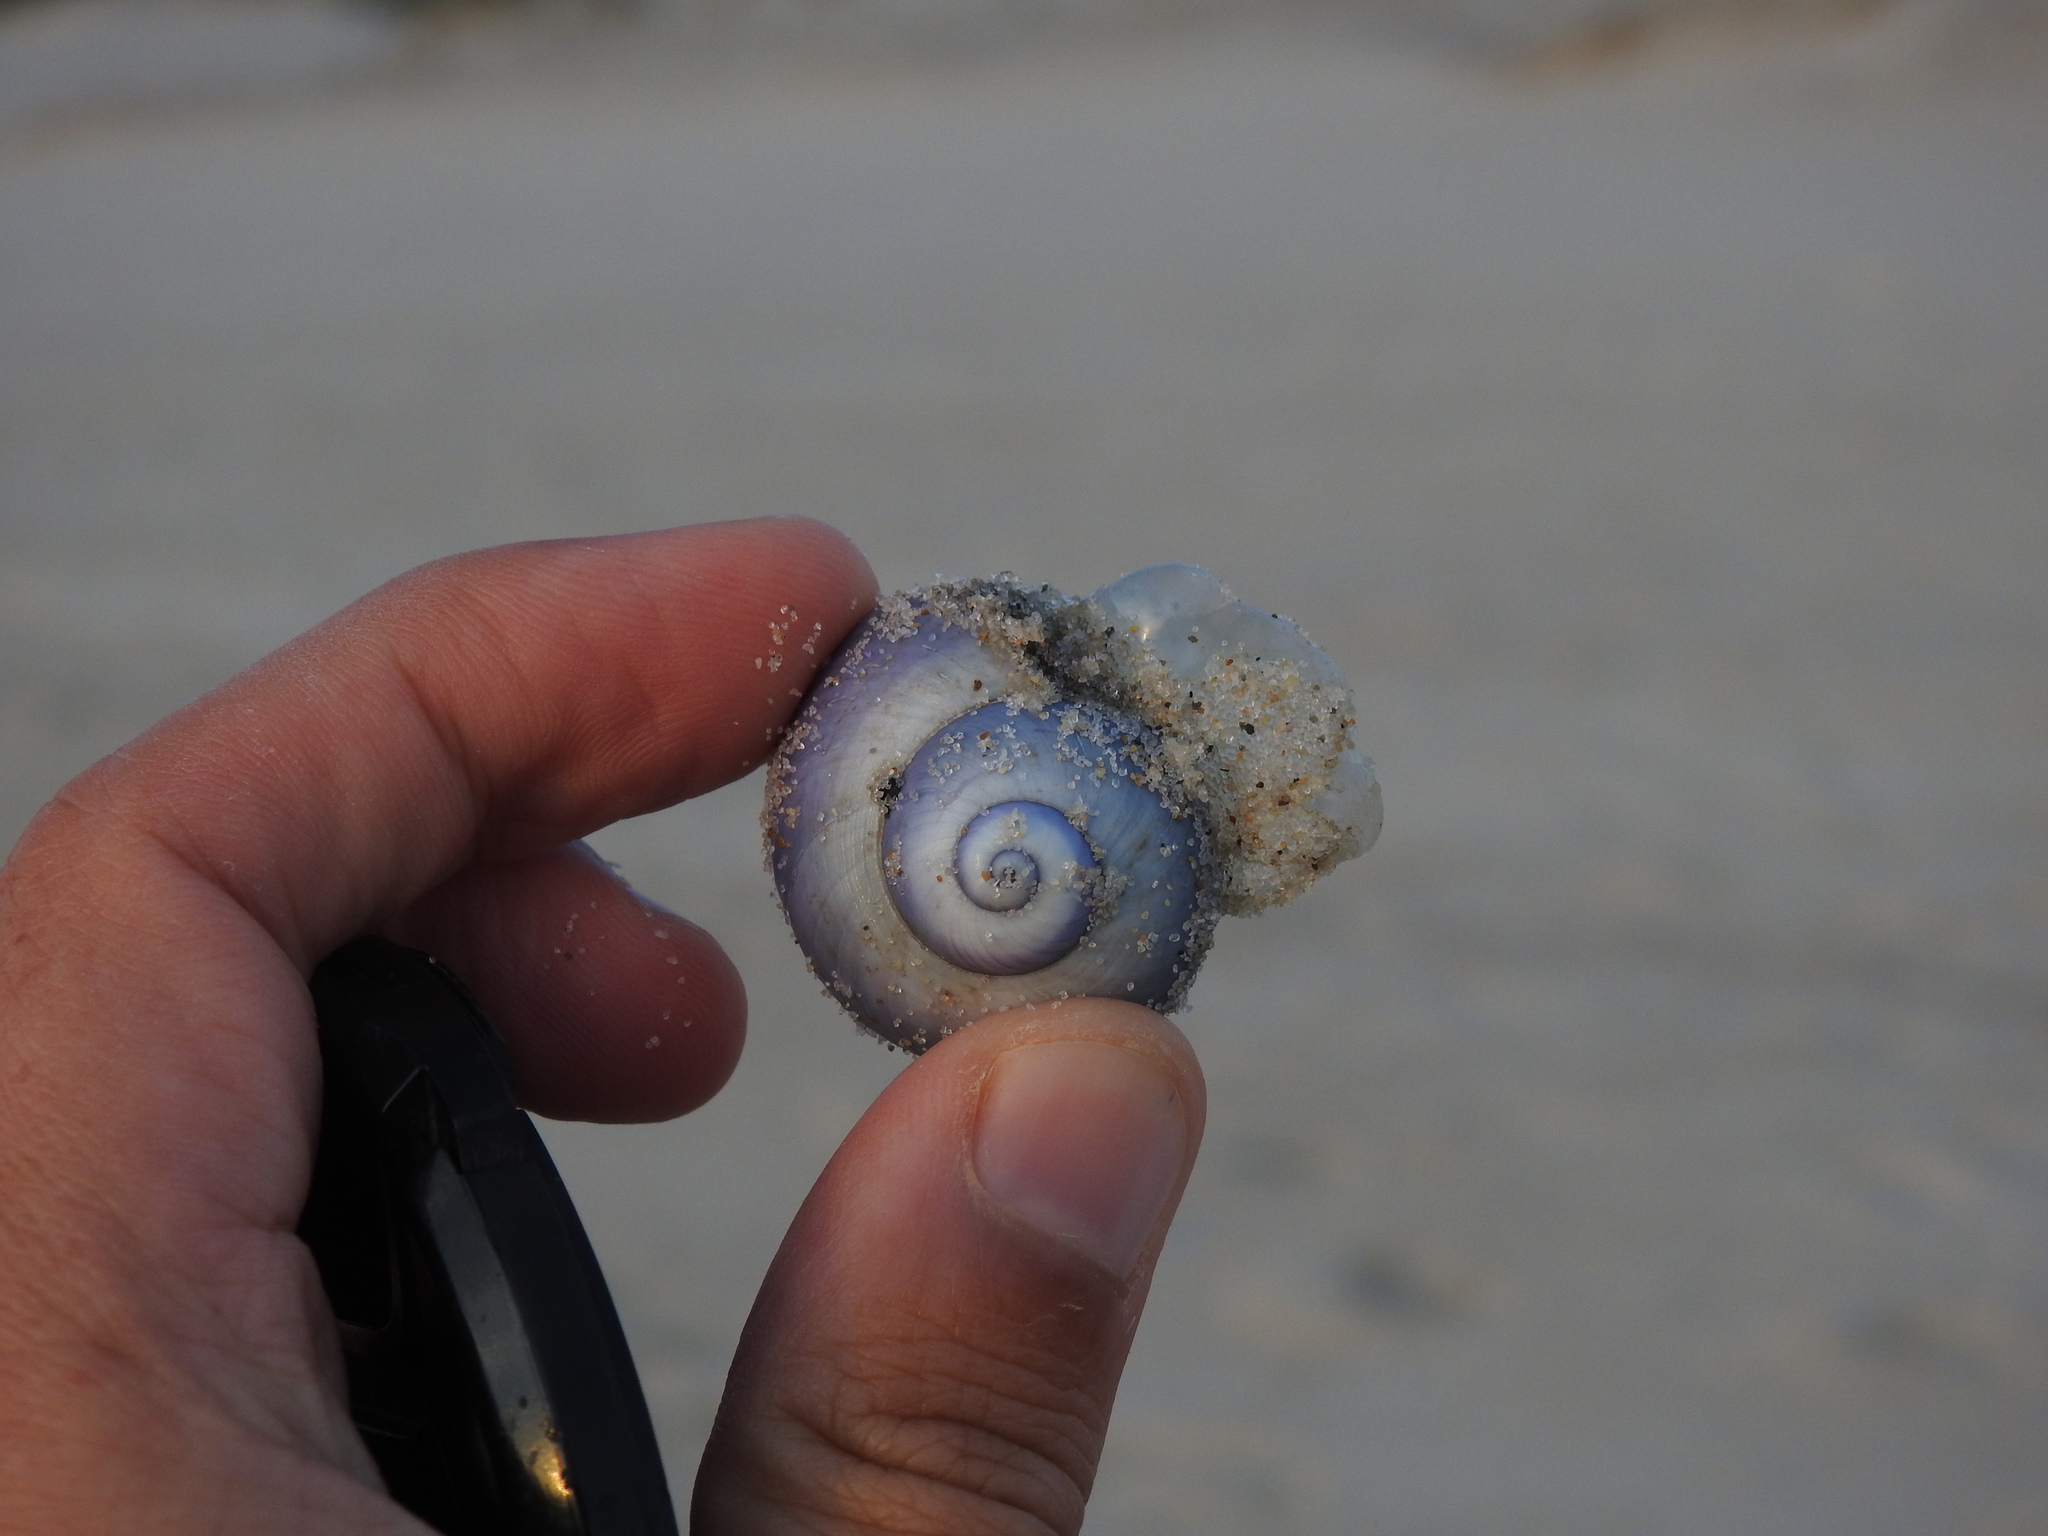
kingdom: Animalia
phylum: Mollusca
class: Gastropoda
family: Epitoniidae
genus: Janthina
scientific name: Janthina janthina
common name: Common janthina
